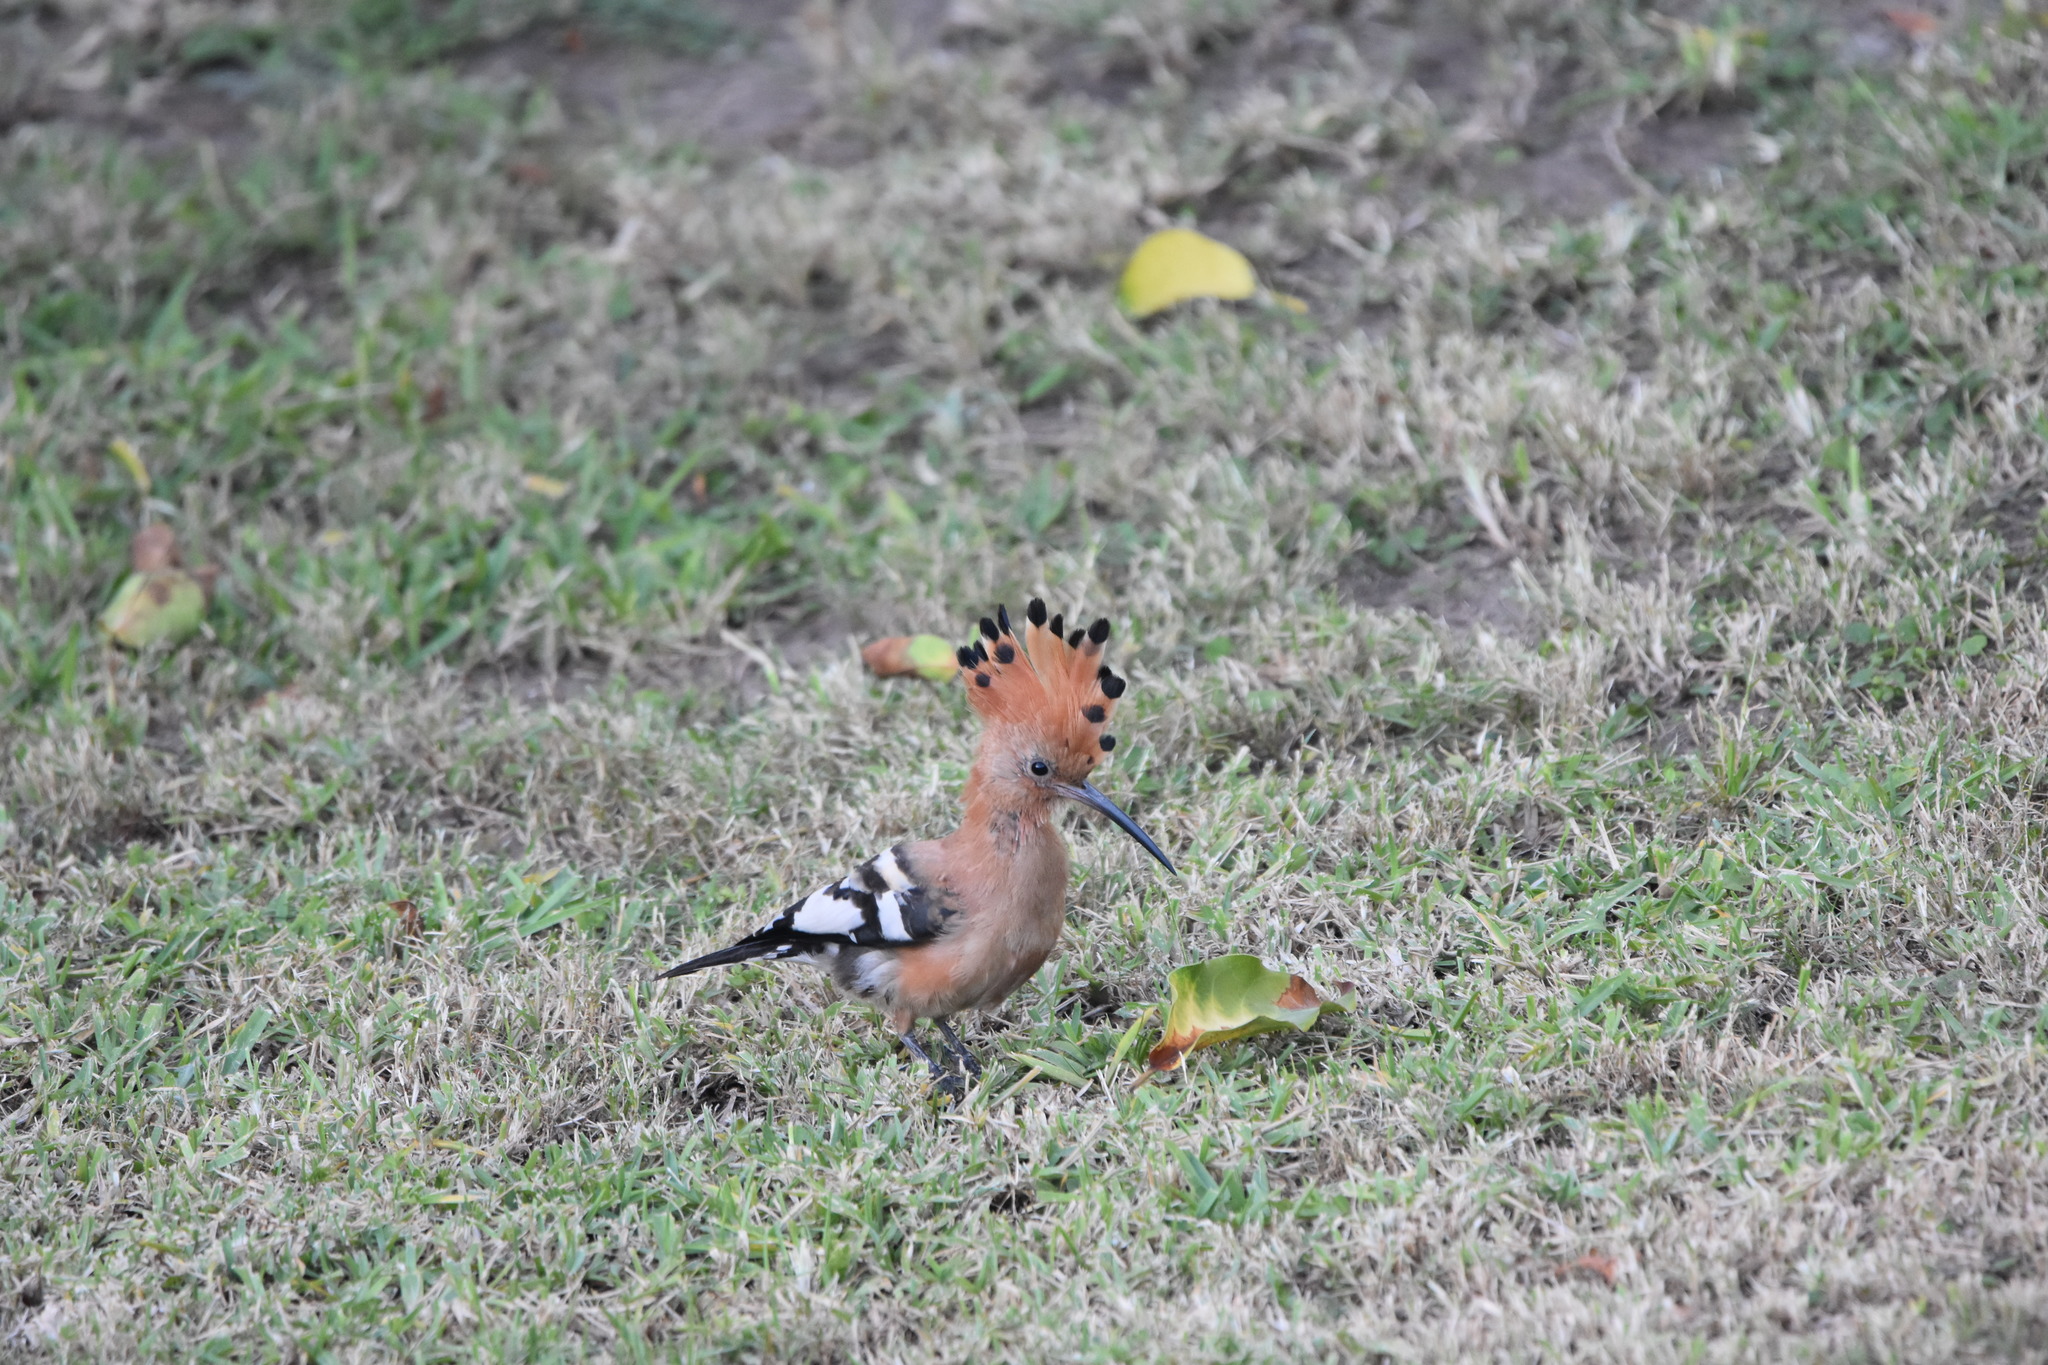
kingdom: Animalia
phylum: Chordata
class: Aves
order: Bucerotiformes
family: Upupidae
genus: Upupa
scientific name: Upupa africana
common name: African hoopoe
